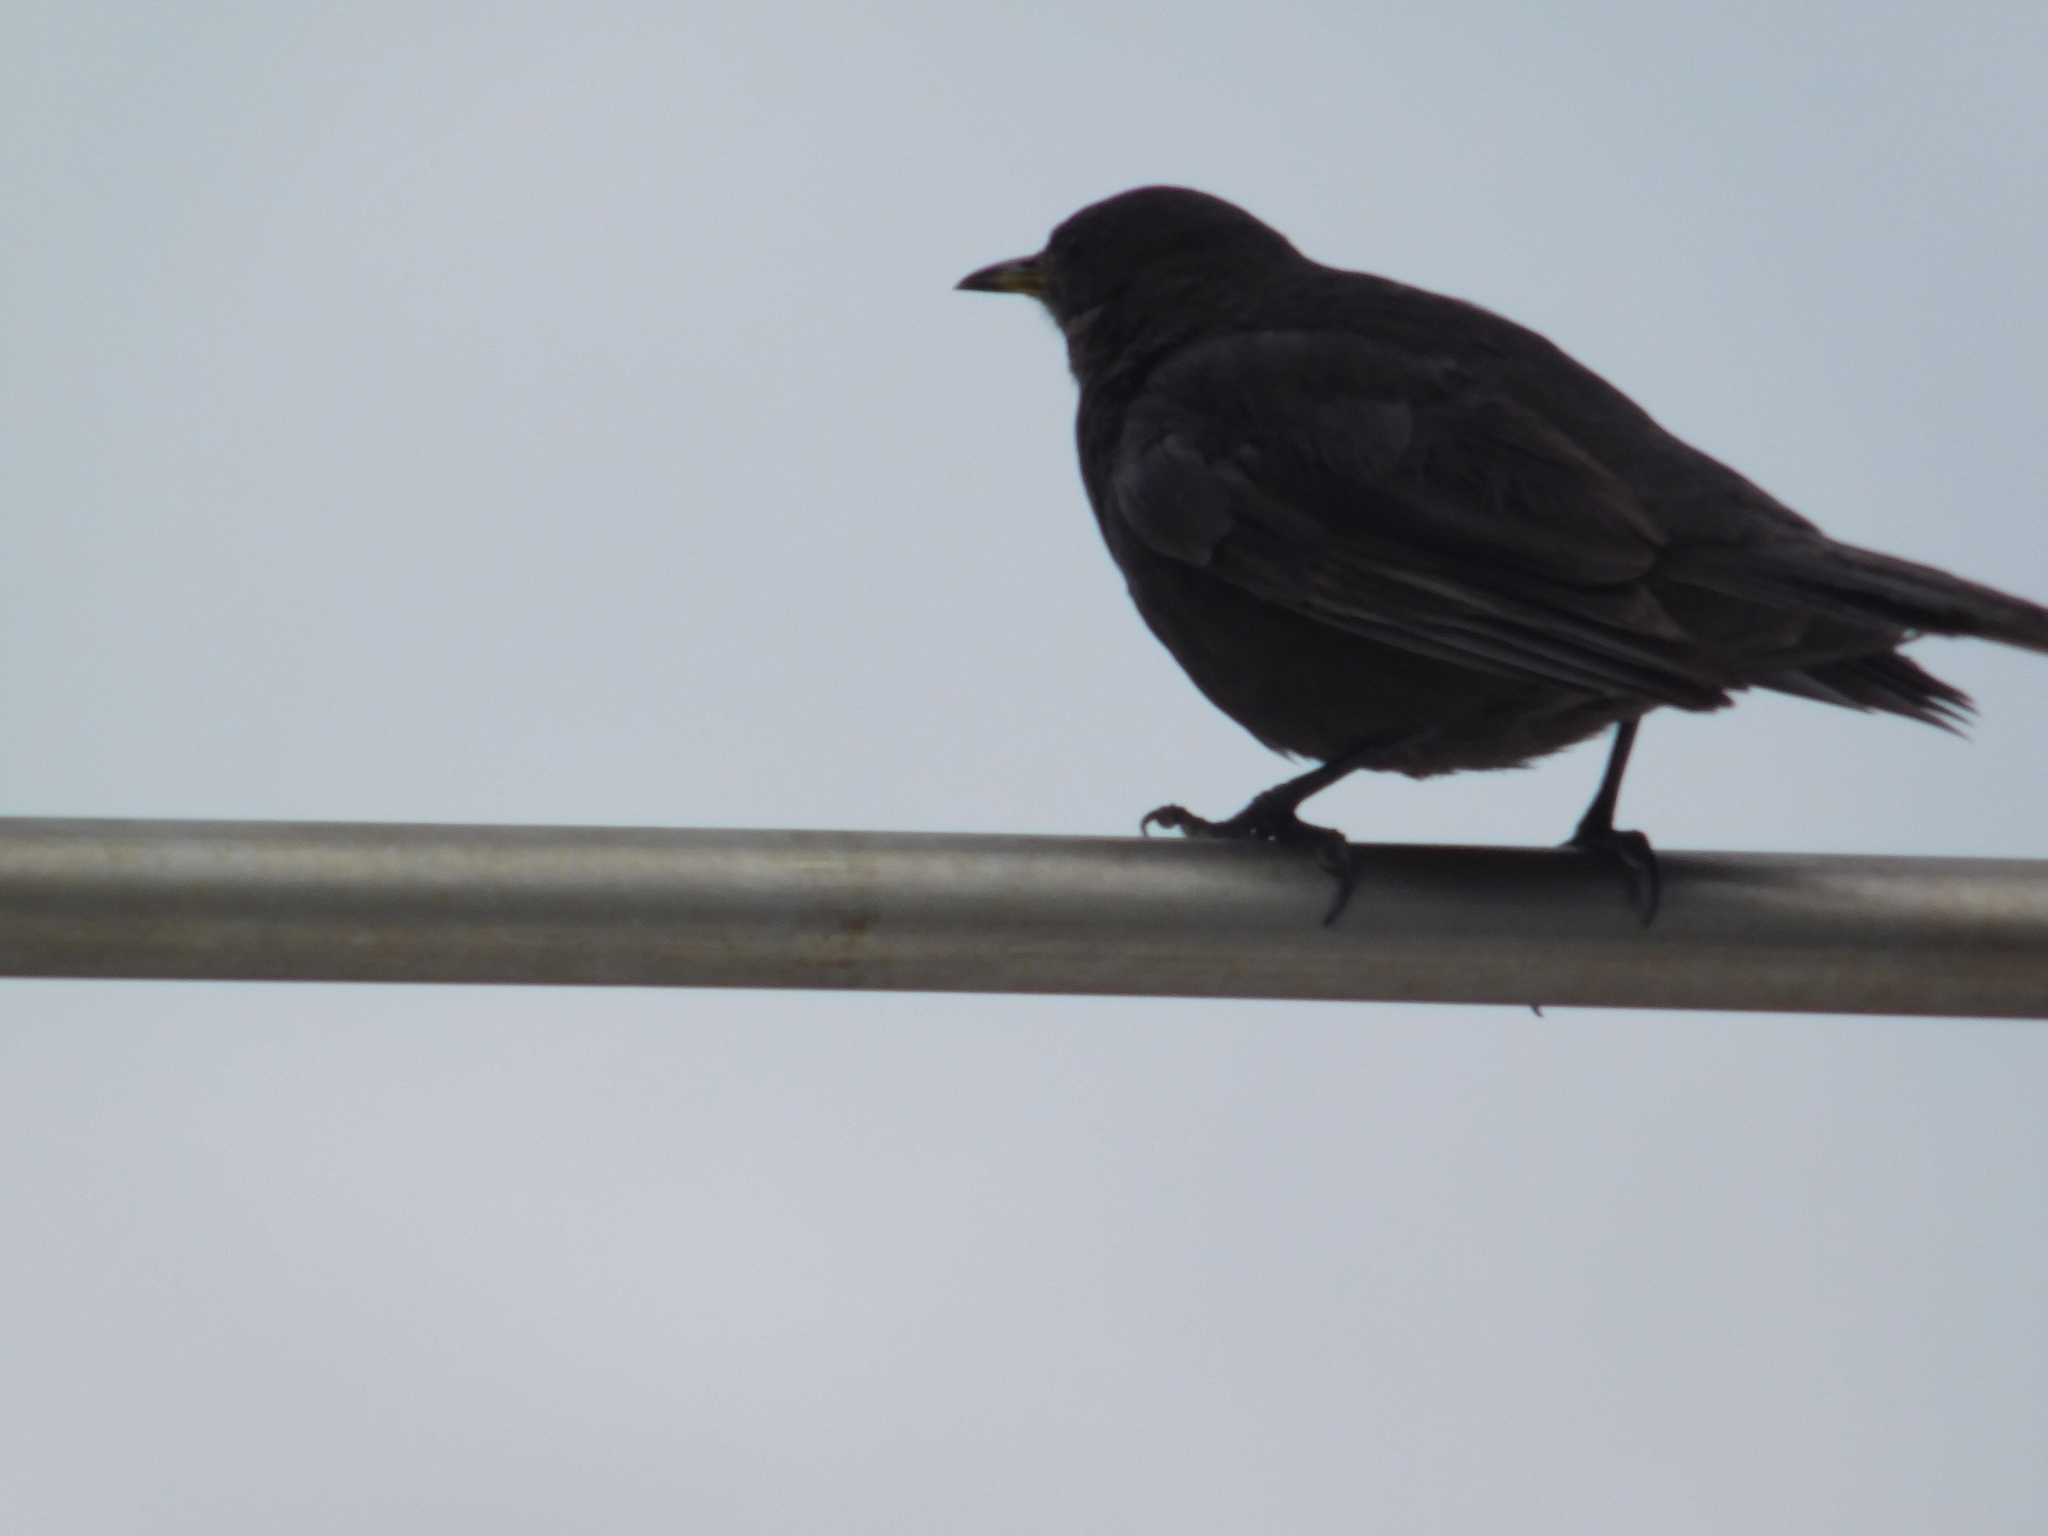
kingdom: Animalia
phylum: Chordata
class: Aves
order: Passeriformes
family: Furnariidae
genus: Cinclodes
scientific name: Cinclodes antarcticus
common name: Blackish cinclodes
